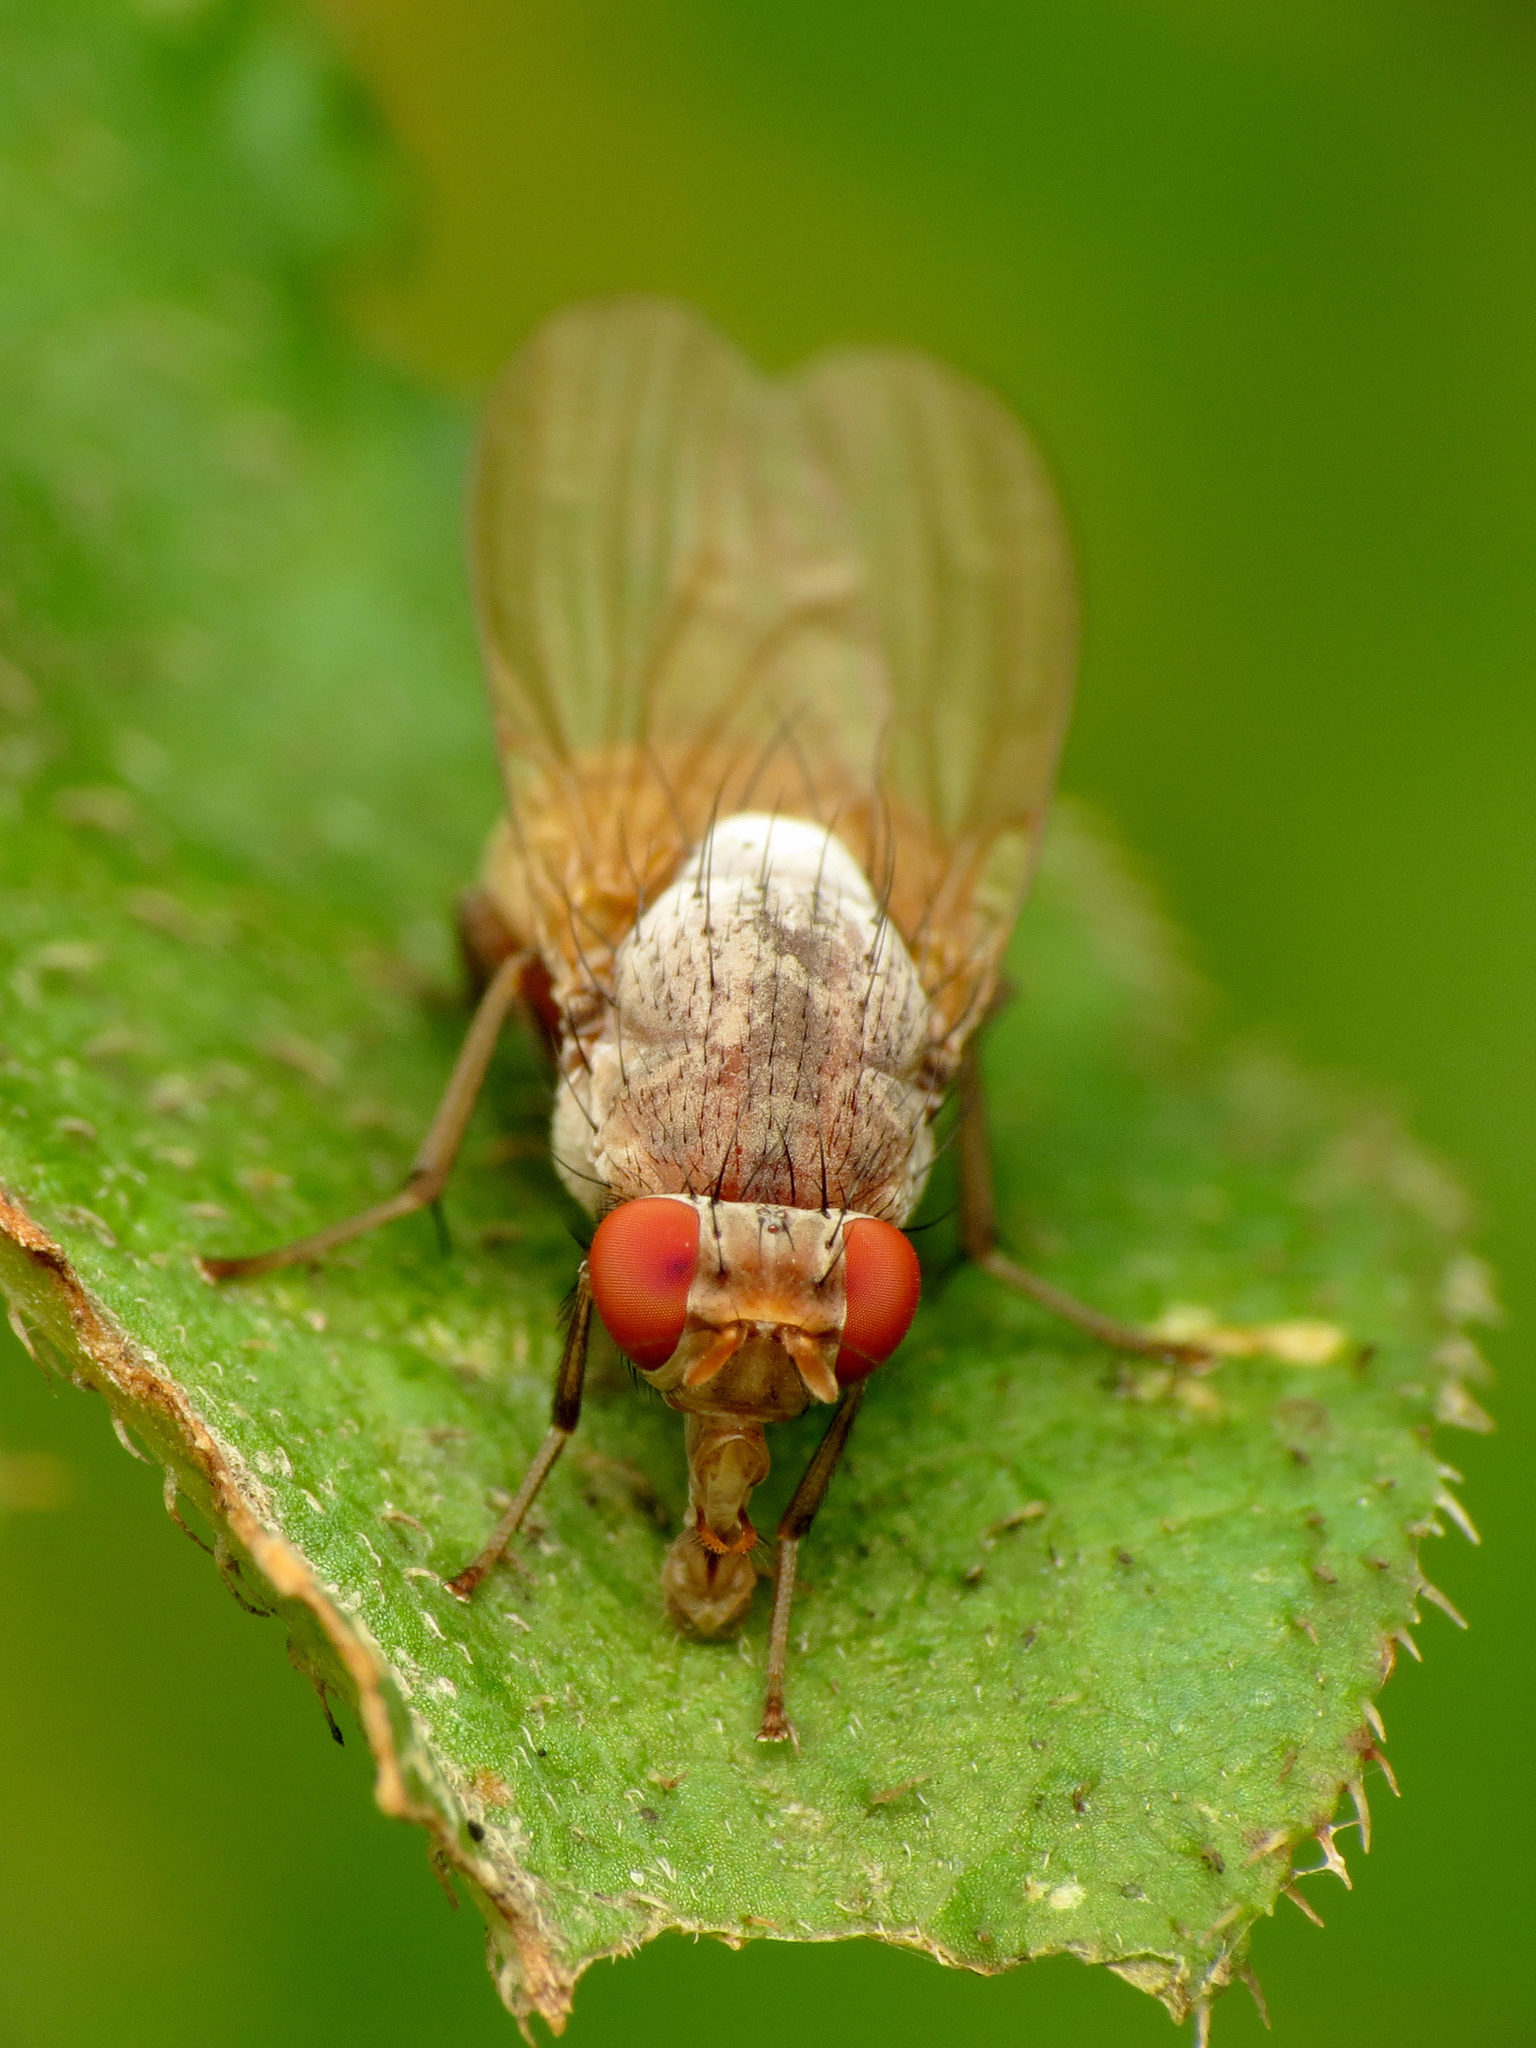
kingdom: Animalia
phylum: Arthropoda
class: Insecta
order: Diptera
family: Lauxaniidae
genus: Minettia
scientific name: Minettia magna
